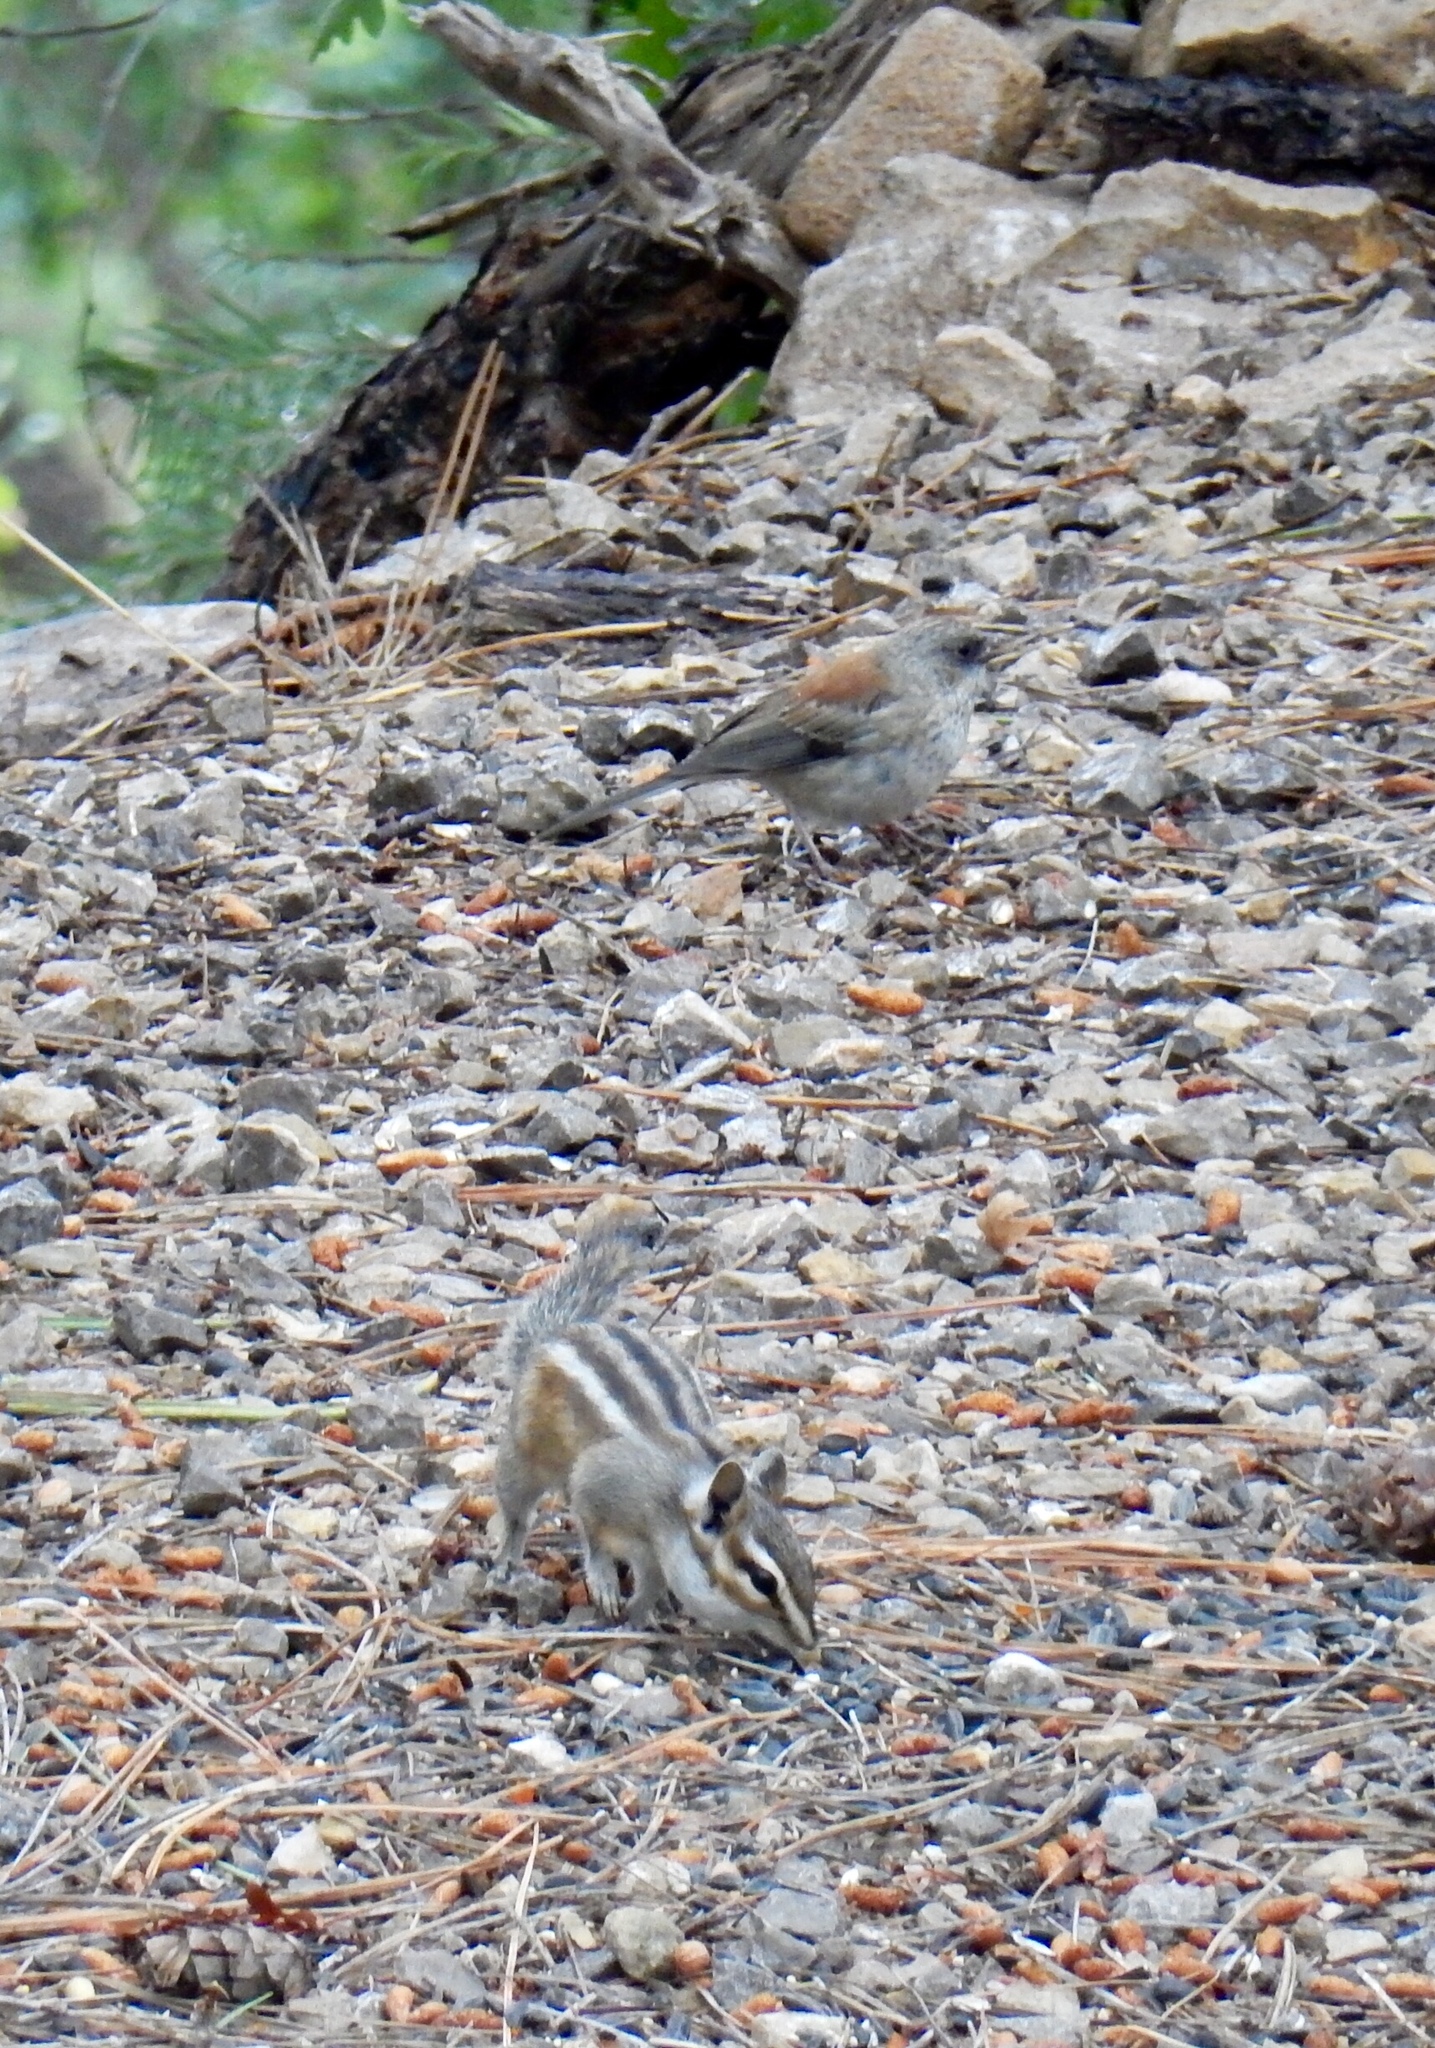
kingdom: Animalia
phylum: Chordata
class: Aves
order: Passeriformes
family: Passerellidae
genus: Junco
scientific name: Junco hyemalis
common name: Dark-eyed junco
